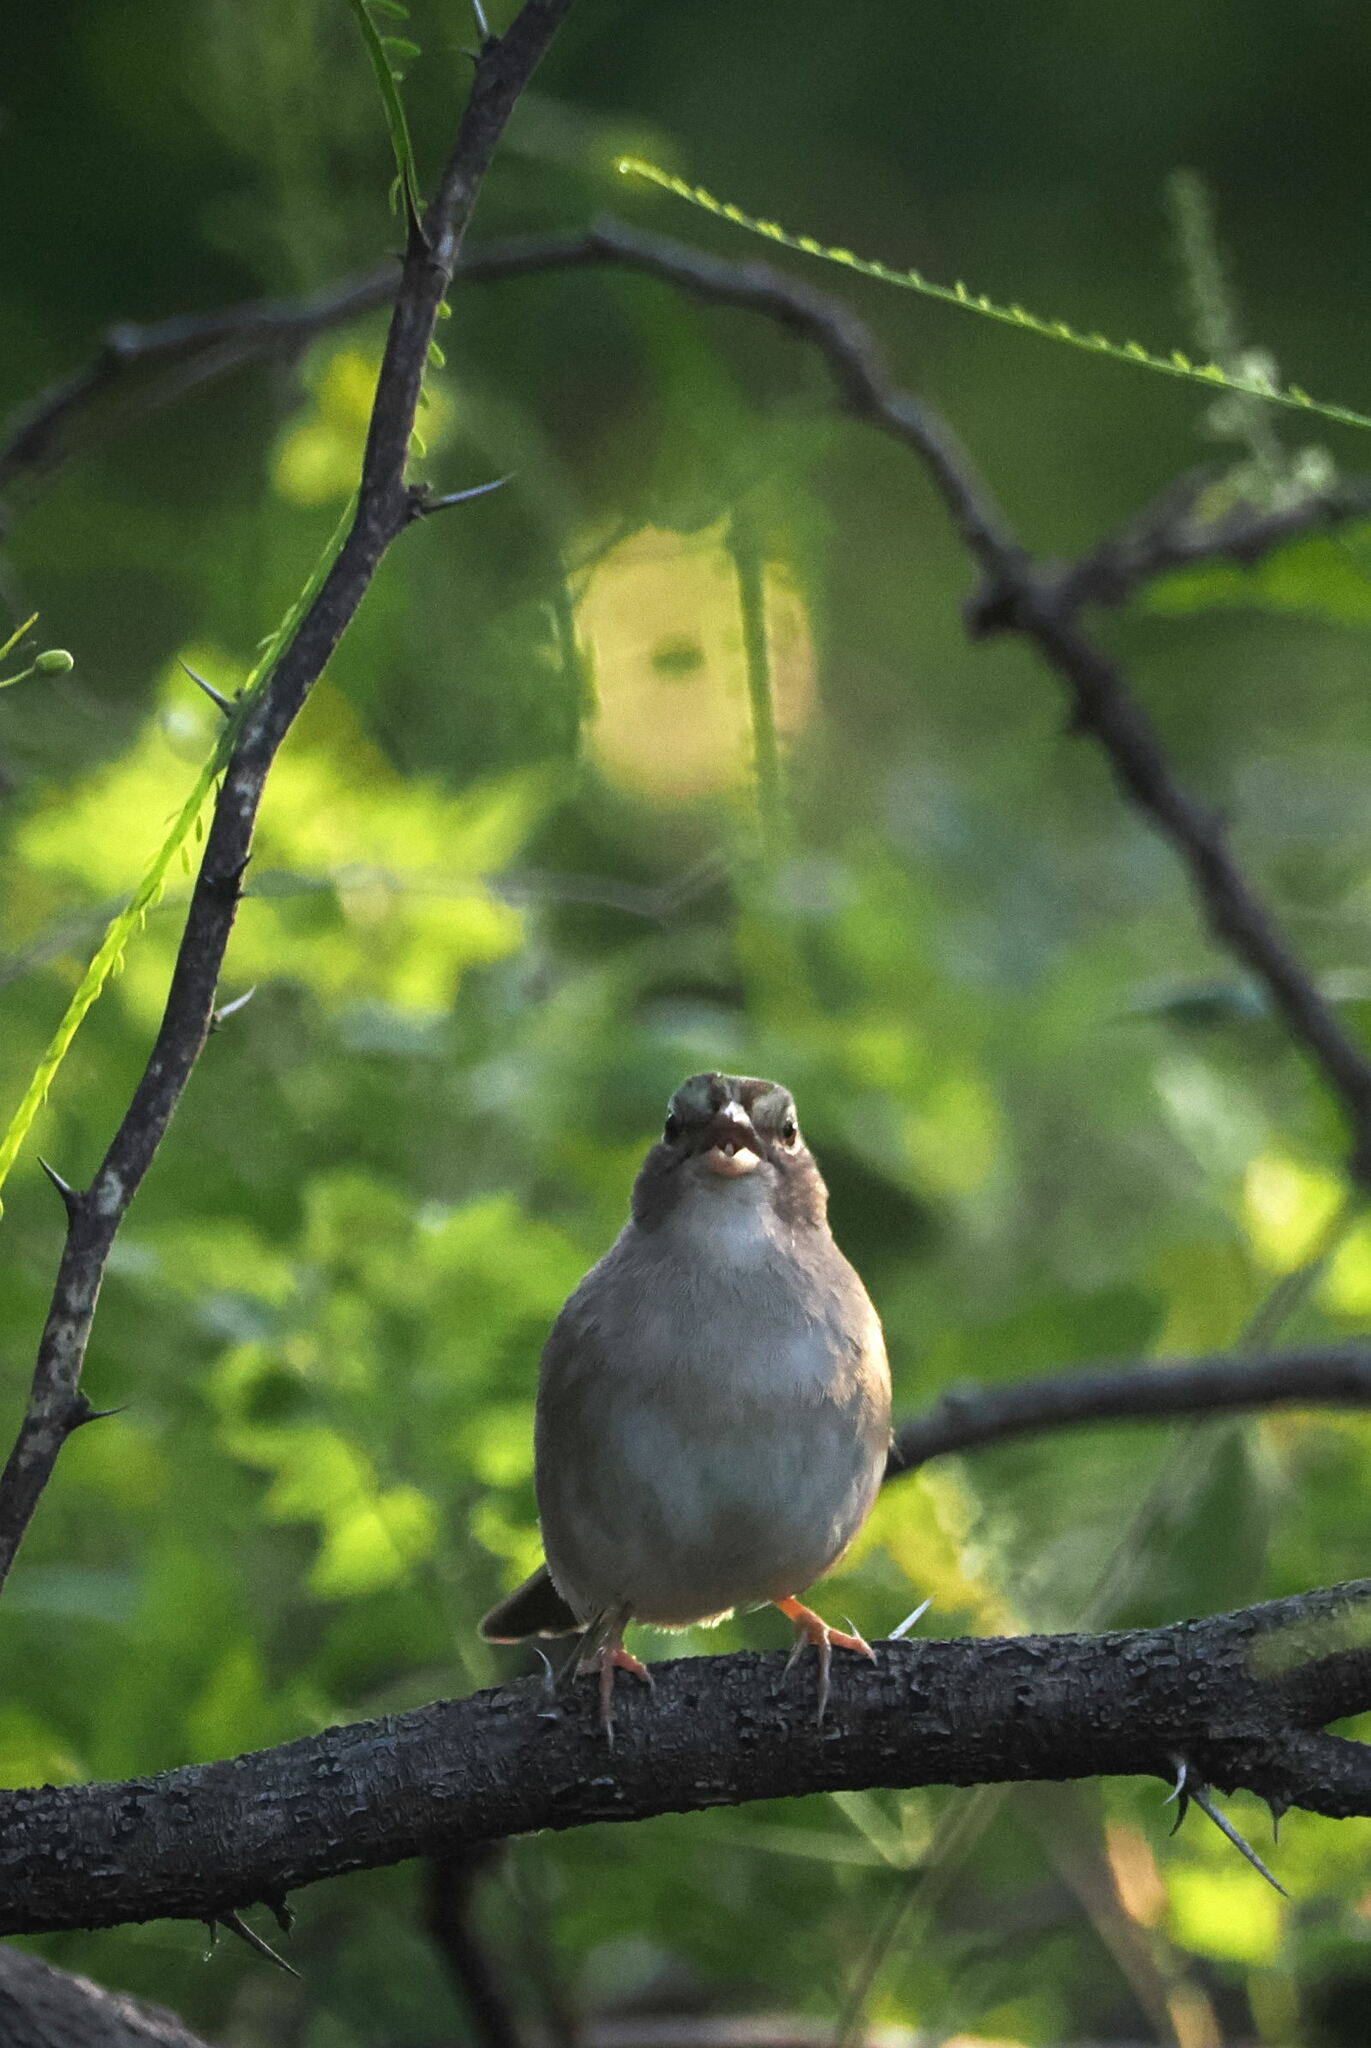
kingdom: Animalia
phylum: Chordata
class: Aves
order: Passeriformes
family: Passerellidae
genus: Arremonops
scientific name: Arremonops rufivirgatus
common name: Olive sparrow
